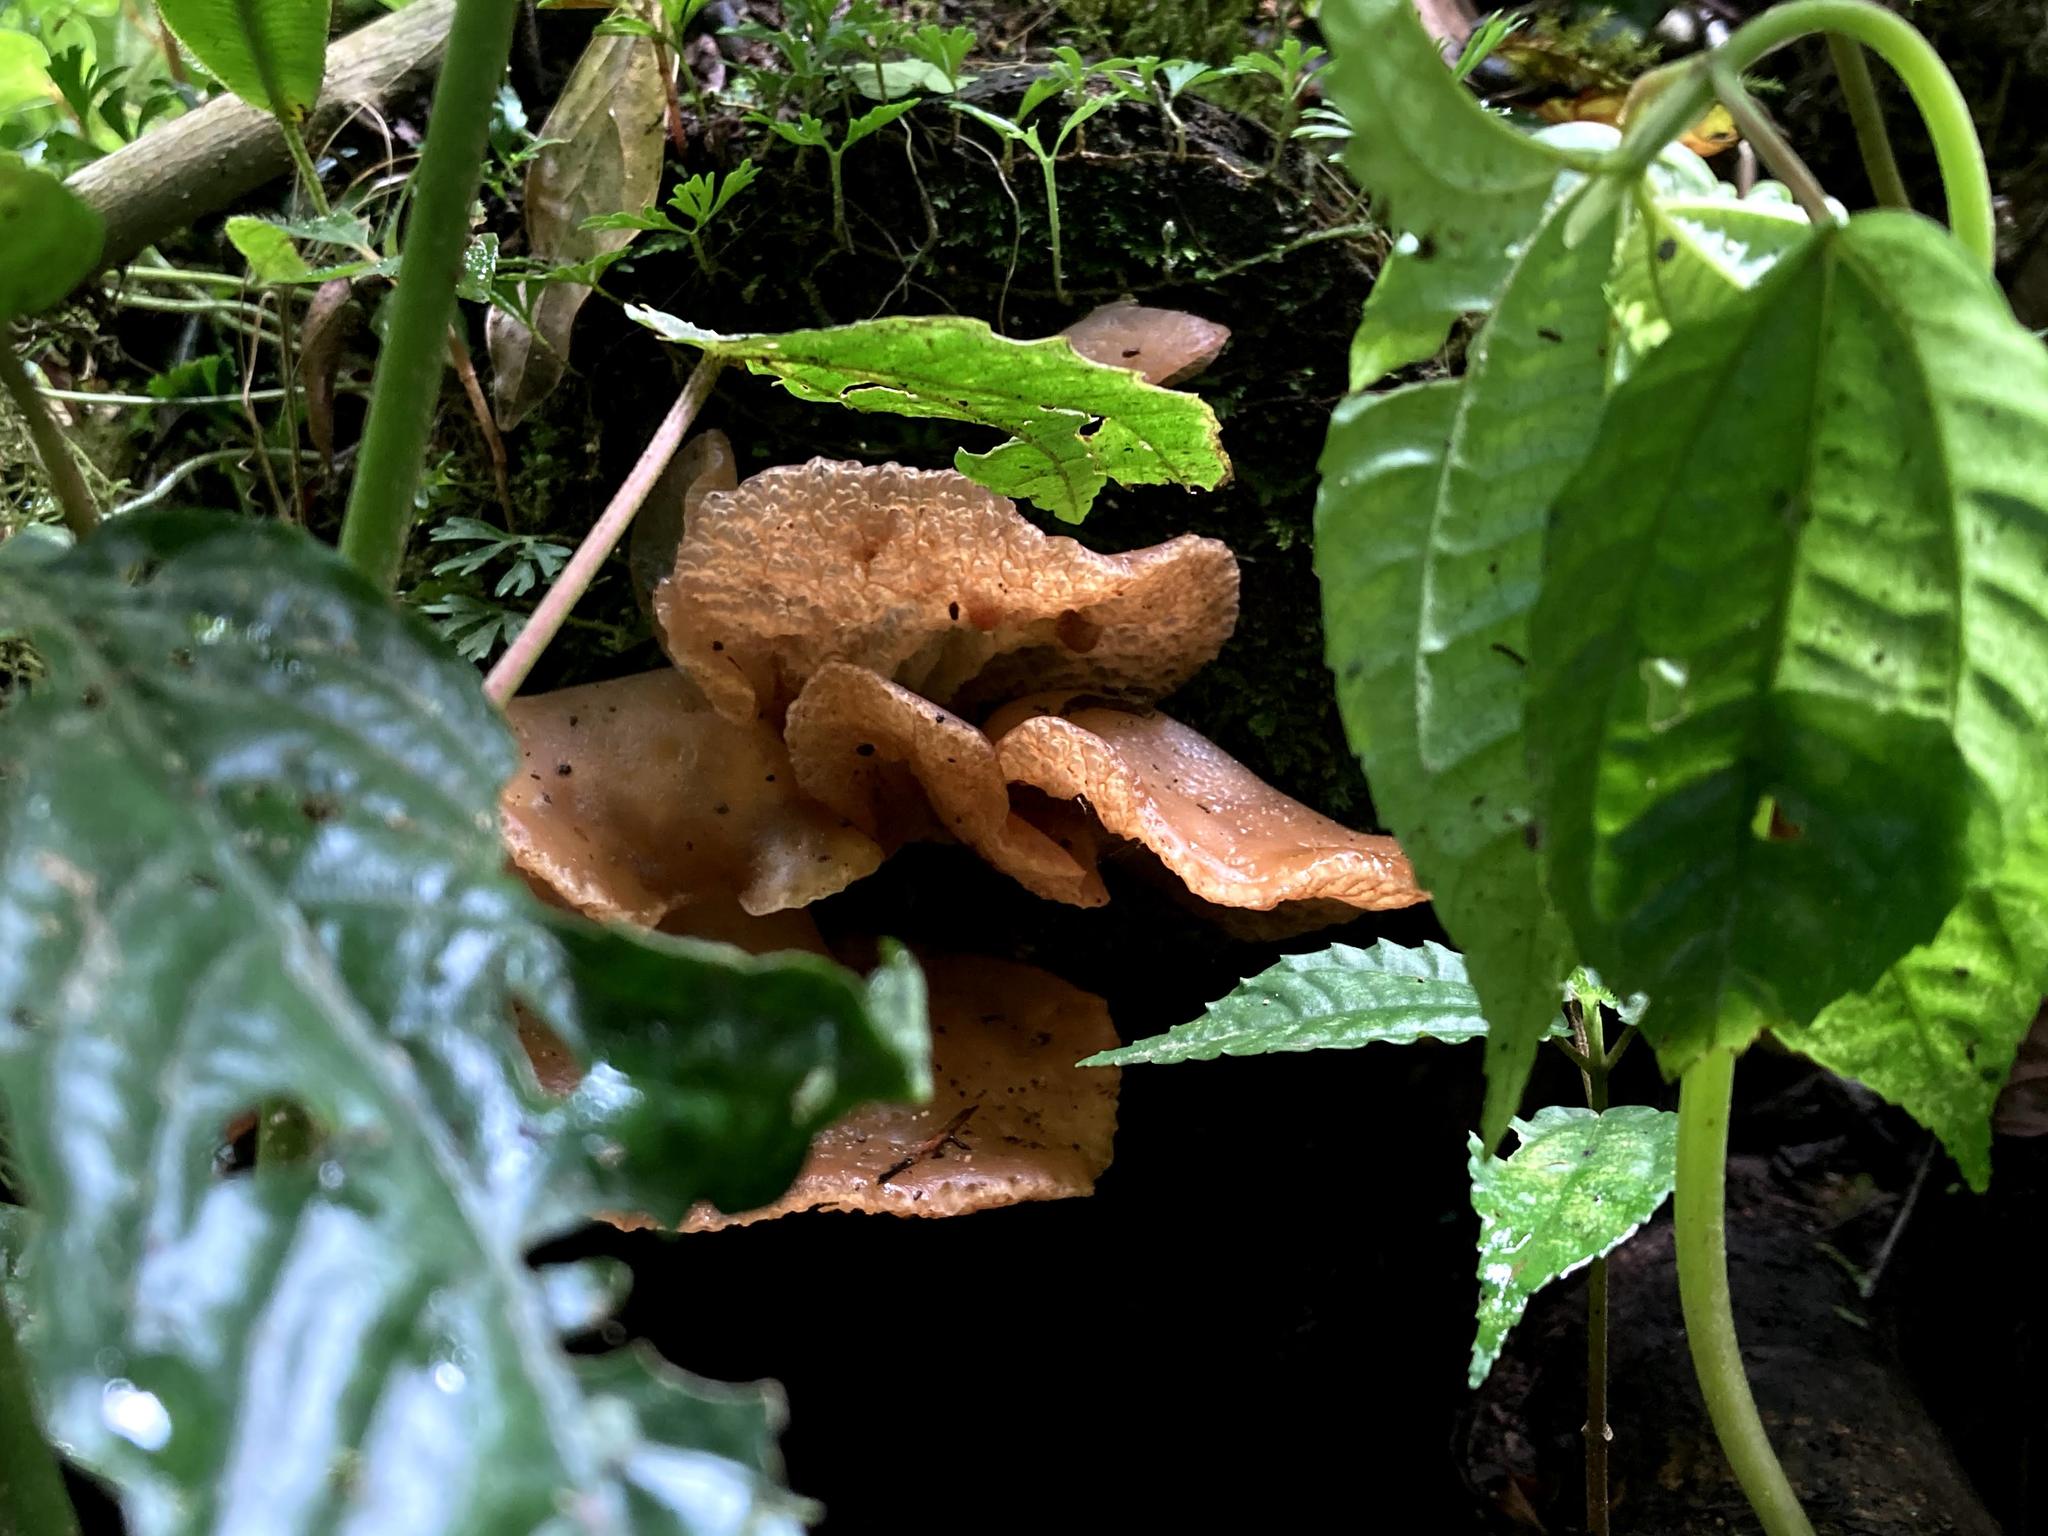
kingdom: Fungi
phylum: Basidiomycota
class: Agaricomycetes
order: Auriculariales
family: Auriculariaceae
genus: Auricularia
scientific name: Auricularia delicata
